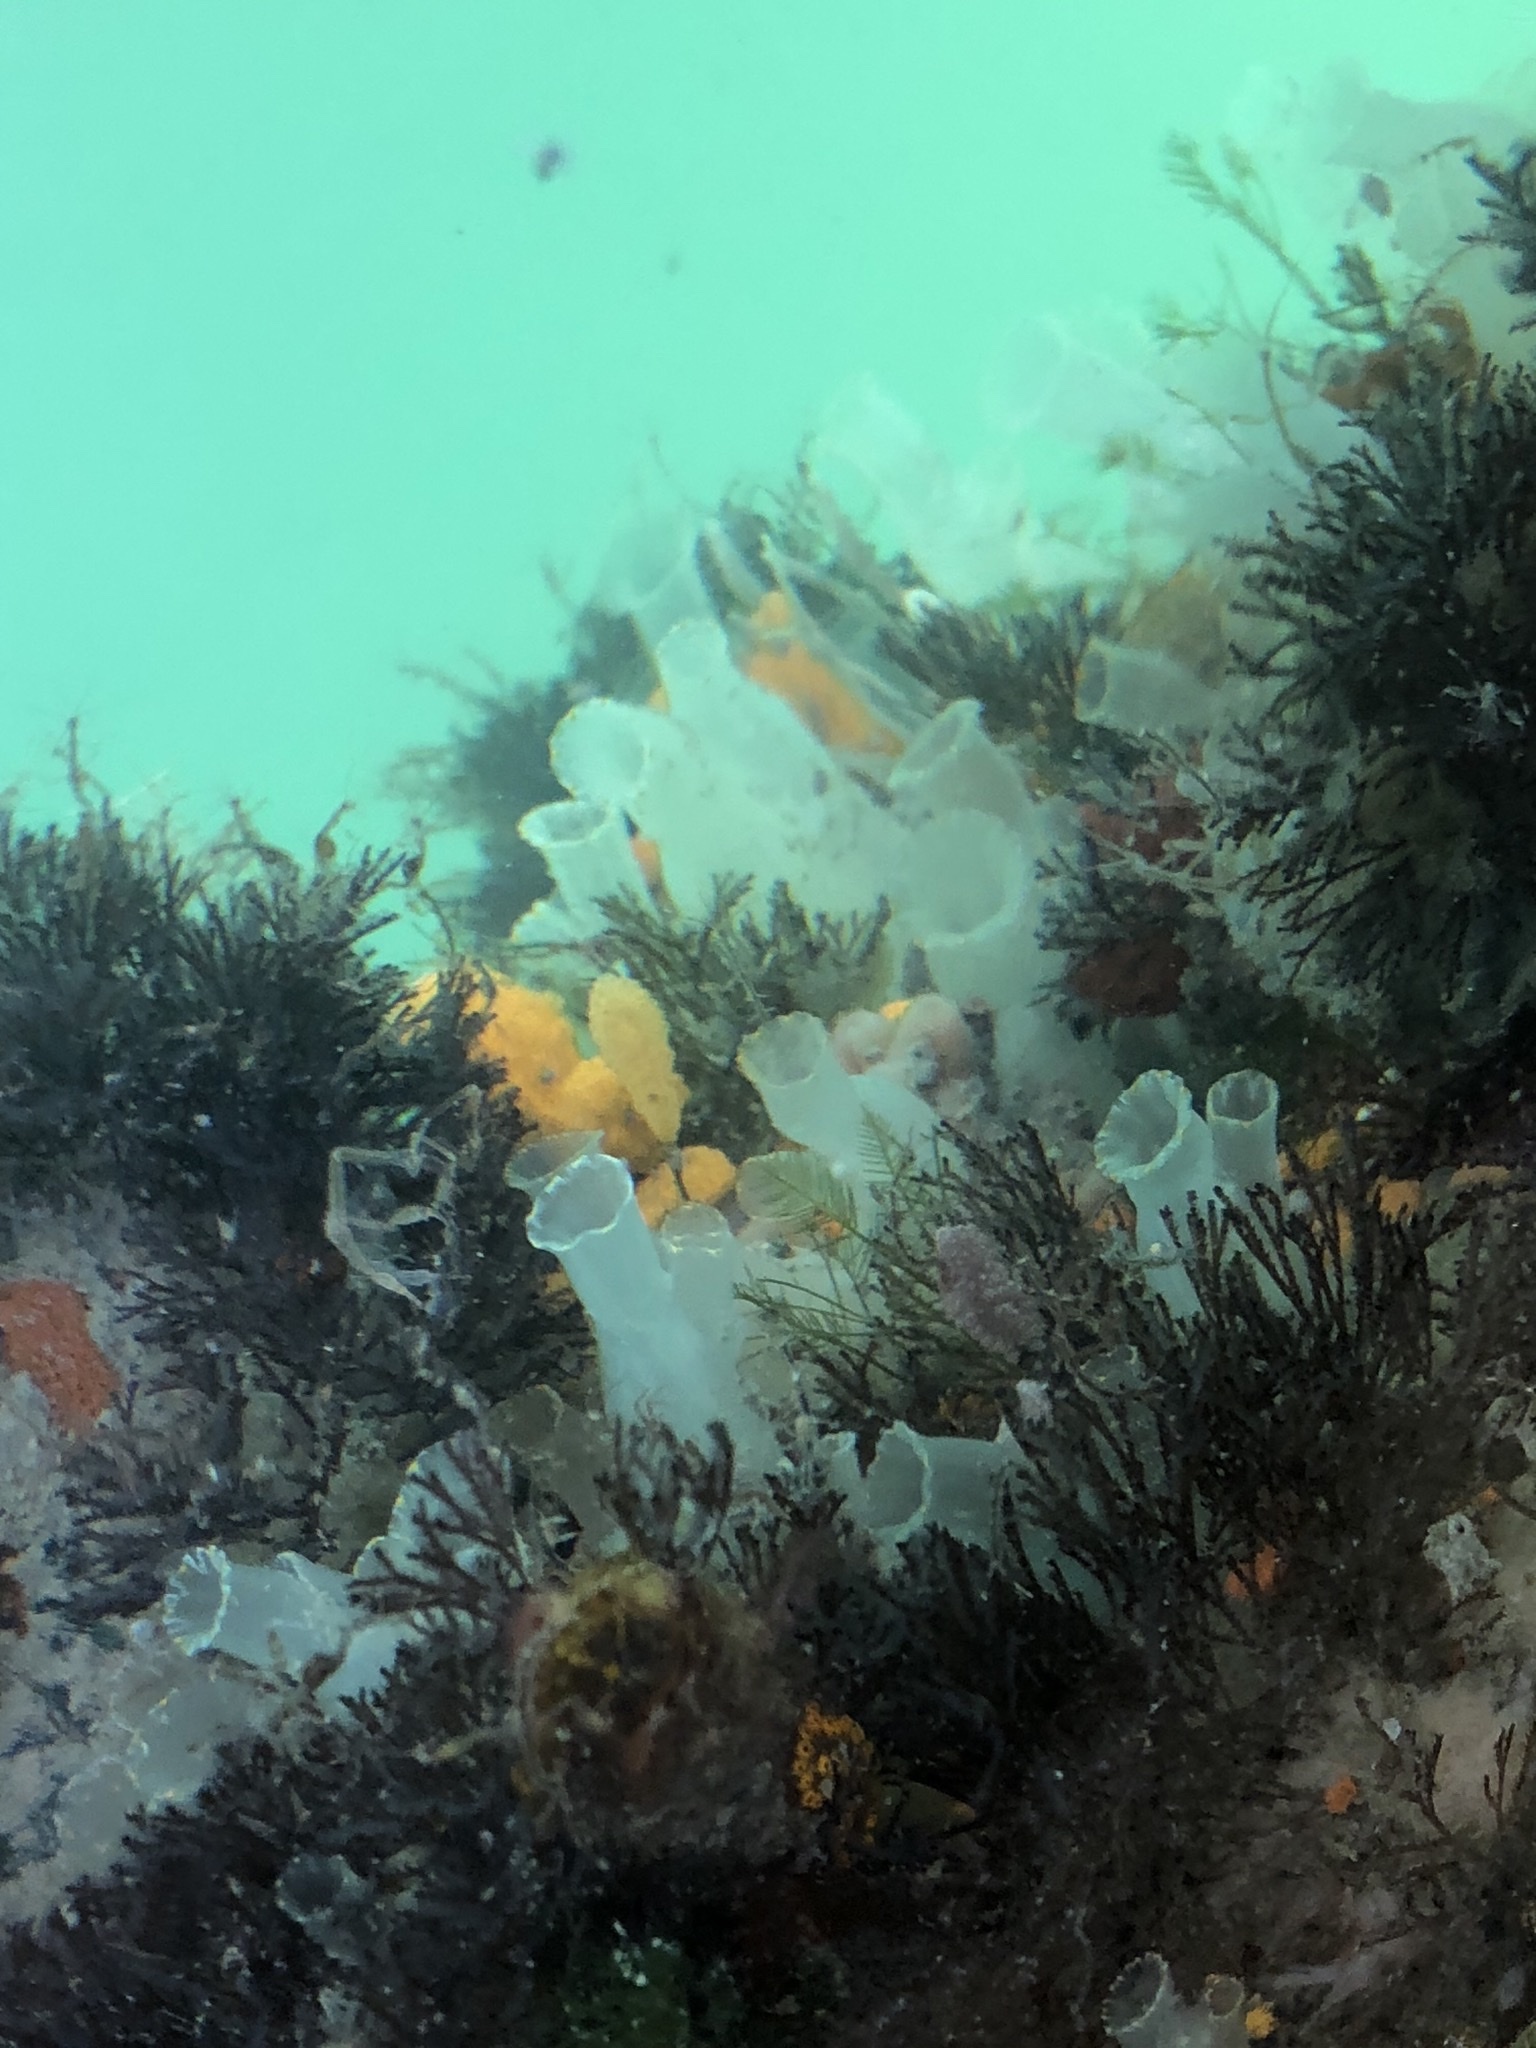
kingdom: Animalia
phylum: Chordata
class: Ascidiacea
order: Phlebobranchia
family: Cionidae
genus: Ciona
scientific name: Ciona savignyi
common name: Tunicate
